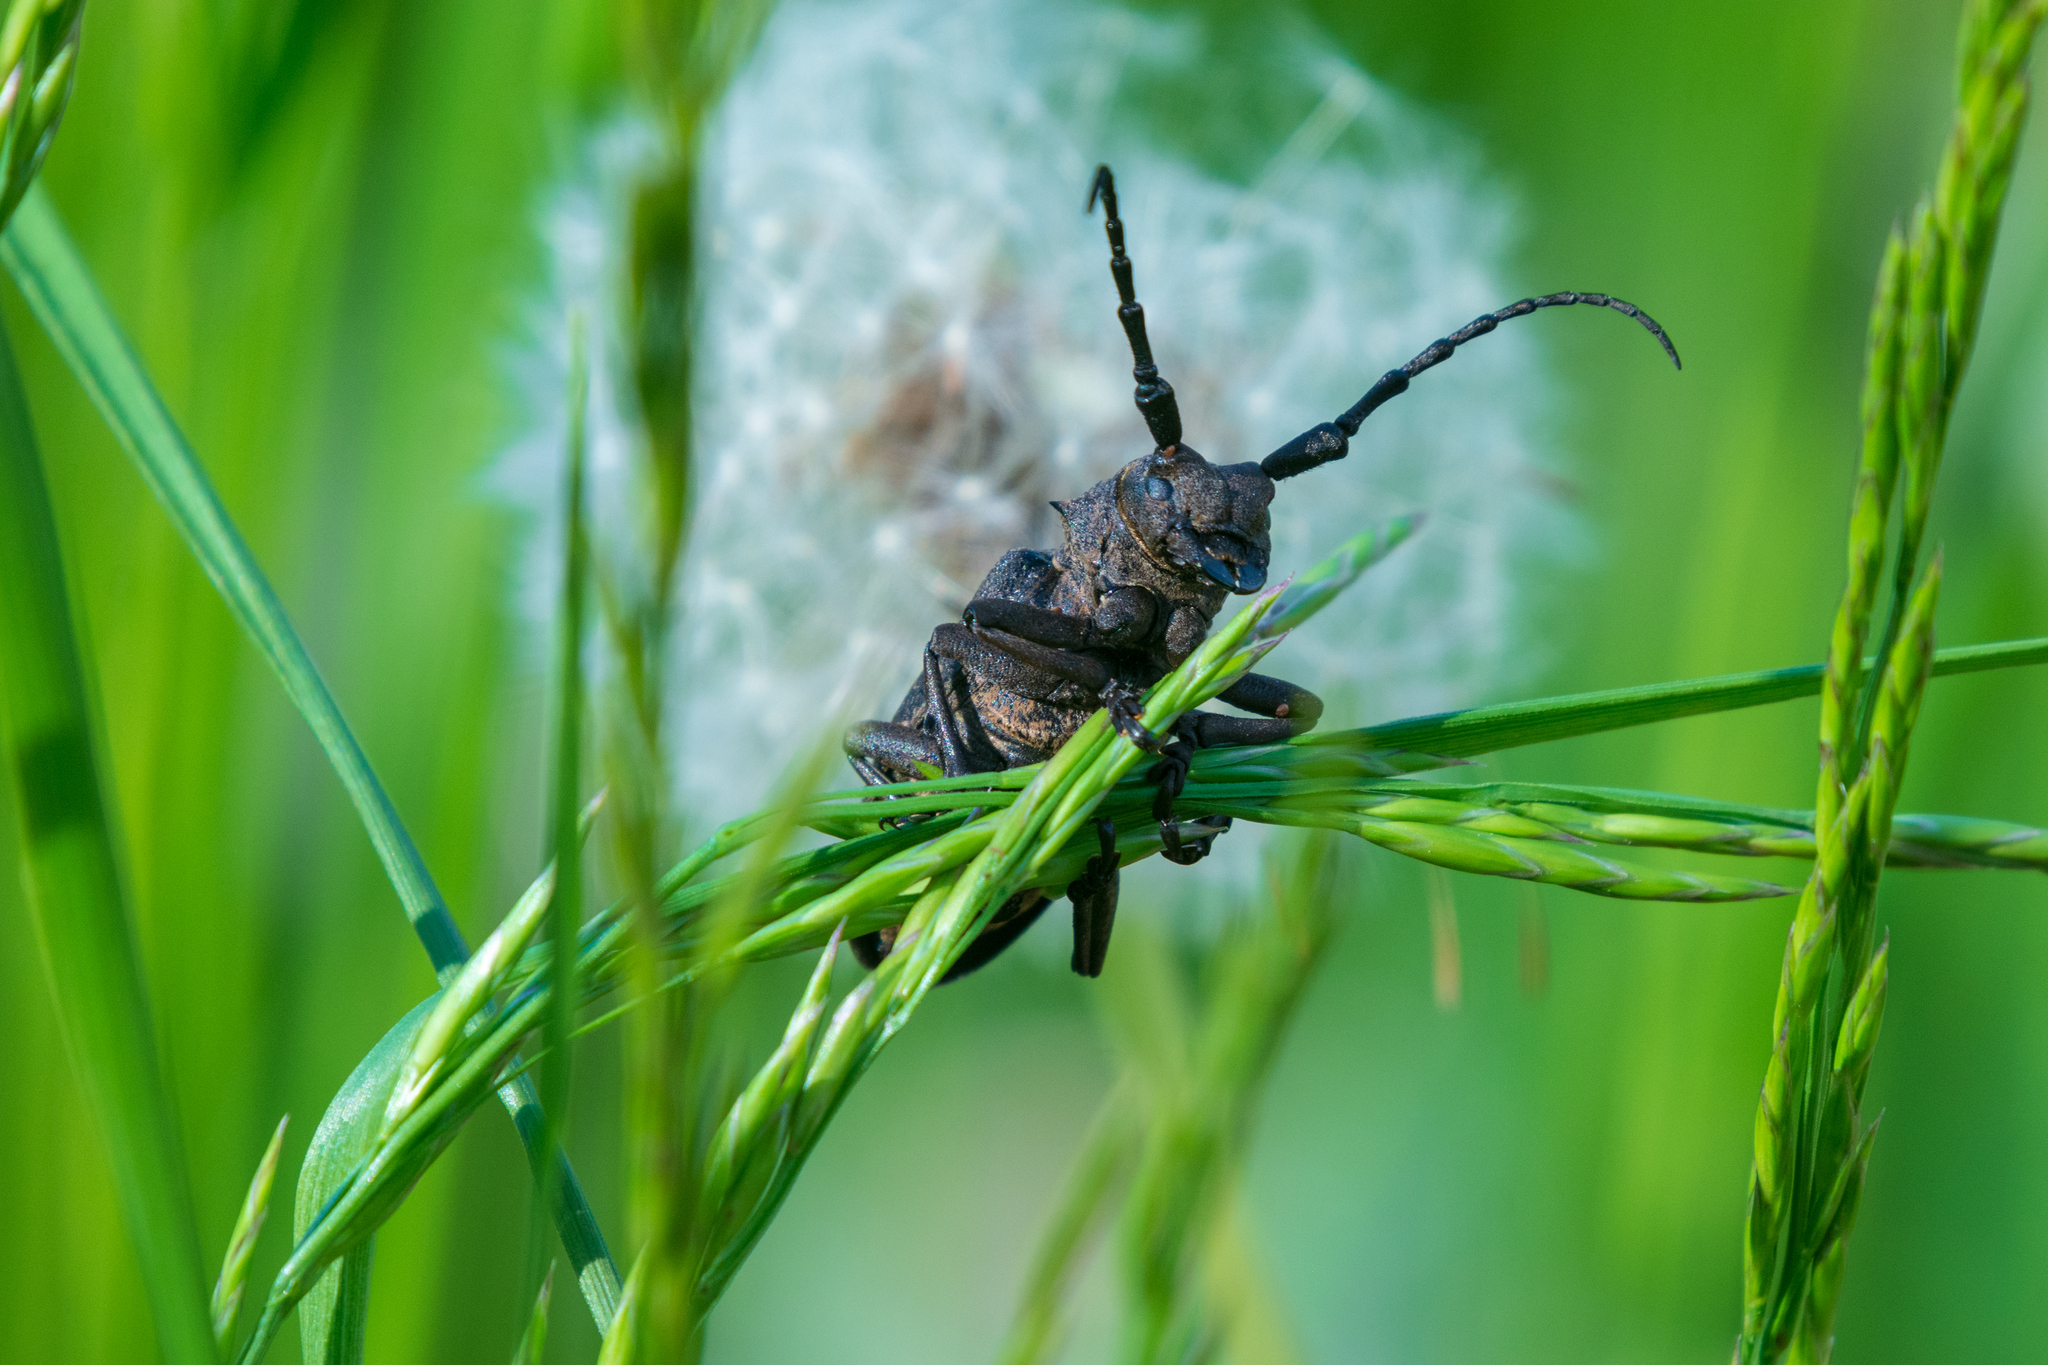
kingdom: Animalia
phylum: Arthropoda
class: Insecta
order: Coleoptera
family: Cerambycidae
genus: Lamia
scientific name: Lamia textor
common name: Weaver beetle
